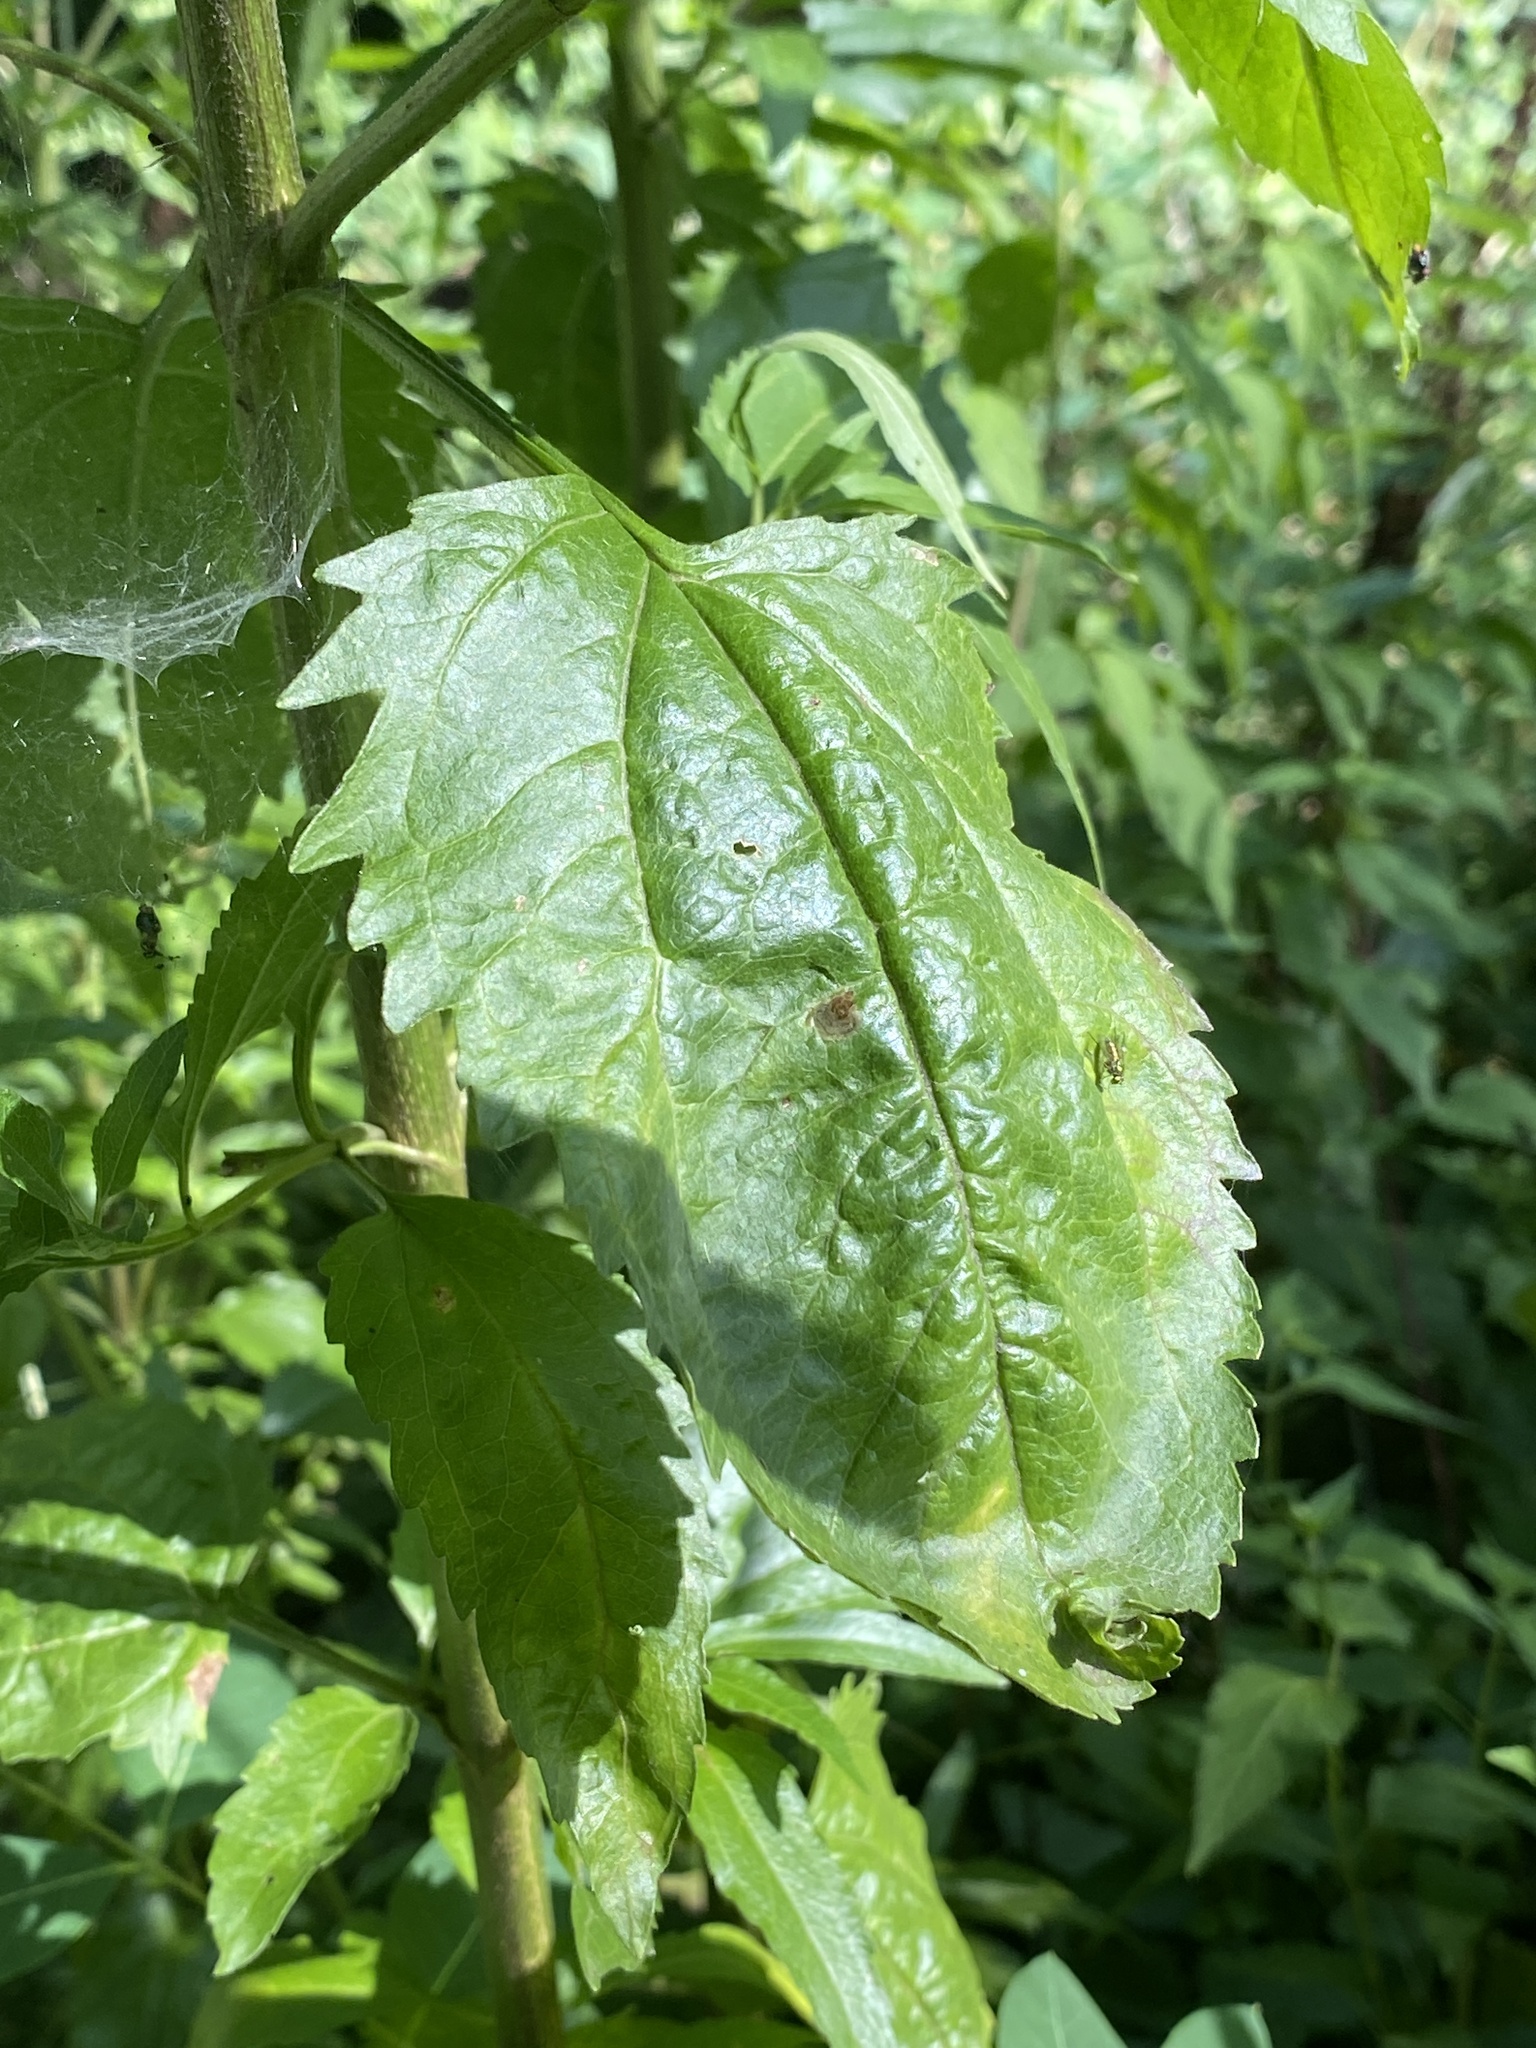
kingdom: Plantae
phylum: Tracheophyta
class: Magnoliopsida
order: Asterales
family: Asteraceae
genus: Eupatorium
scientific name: Eupatorium serotinum
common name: Late boneset
